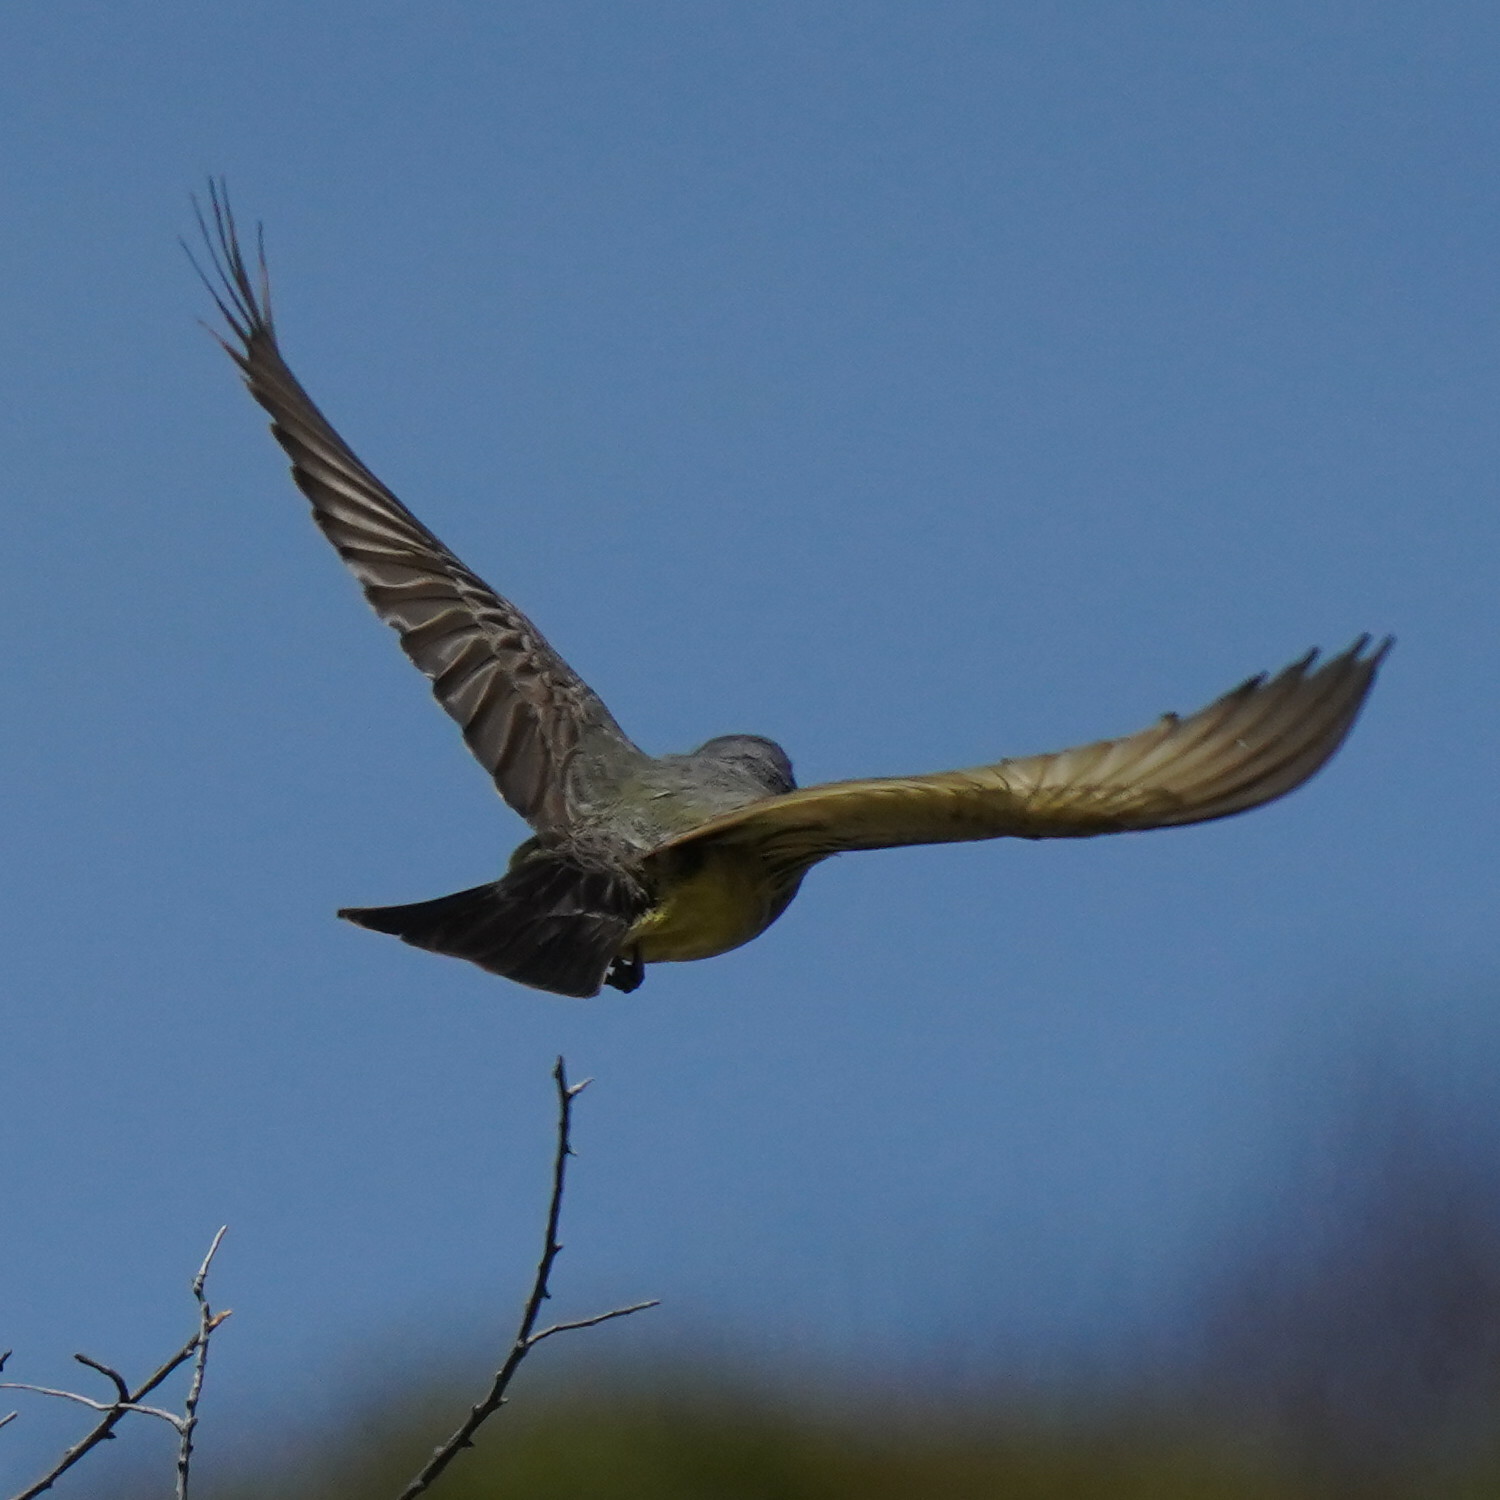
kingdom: Animalia
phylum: Chordata
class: Aves
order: Passeriformes
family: Tyrannidae
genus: Tyrannus
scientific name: Tyrannus vociferans
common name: Cassin's kingbird
